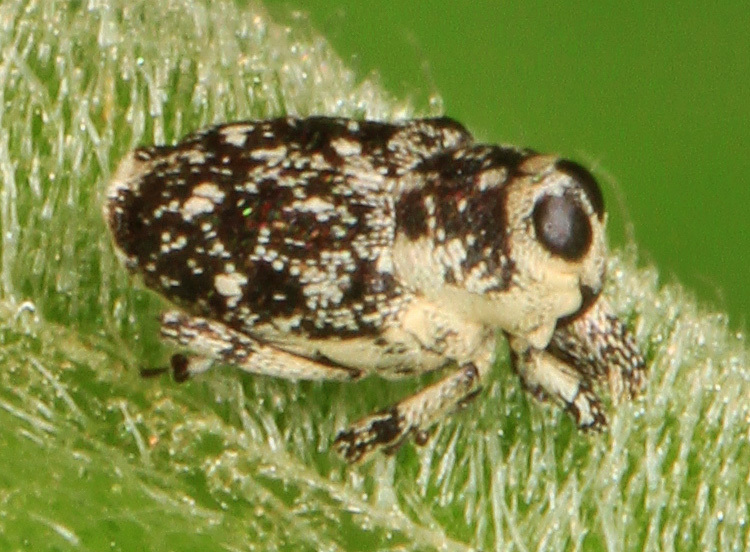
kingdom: Animalia
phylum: Arthropoda
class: Insecta
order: Coleoptera
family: Curculionidae
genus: Cylindrocopturus
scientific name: Cylindrocopturus quercus
